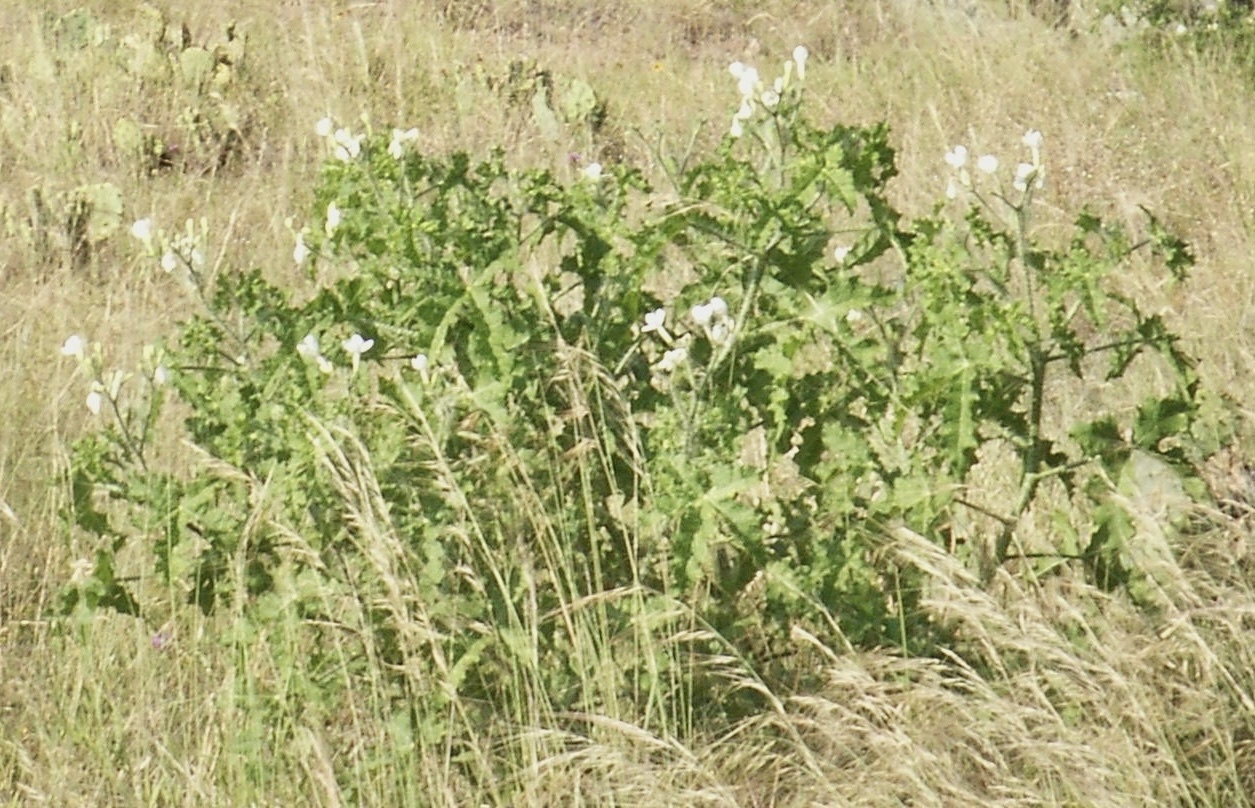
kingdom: Plantae
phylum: Tracheophyta
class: Magnoliopsida
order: Malpighiales
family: Euphorbiaceae
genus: Cnidoscolus
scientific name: Cnidoscolus texanus
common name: Texas bull-nettle
